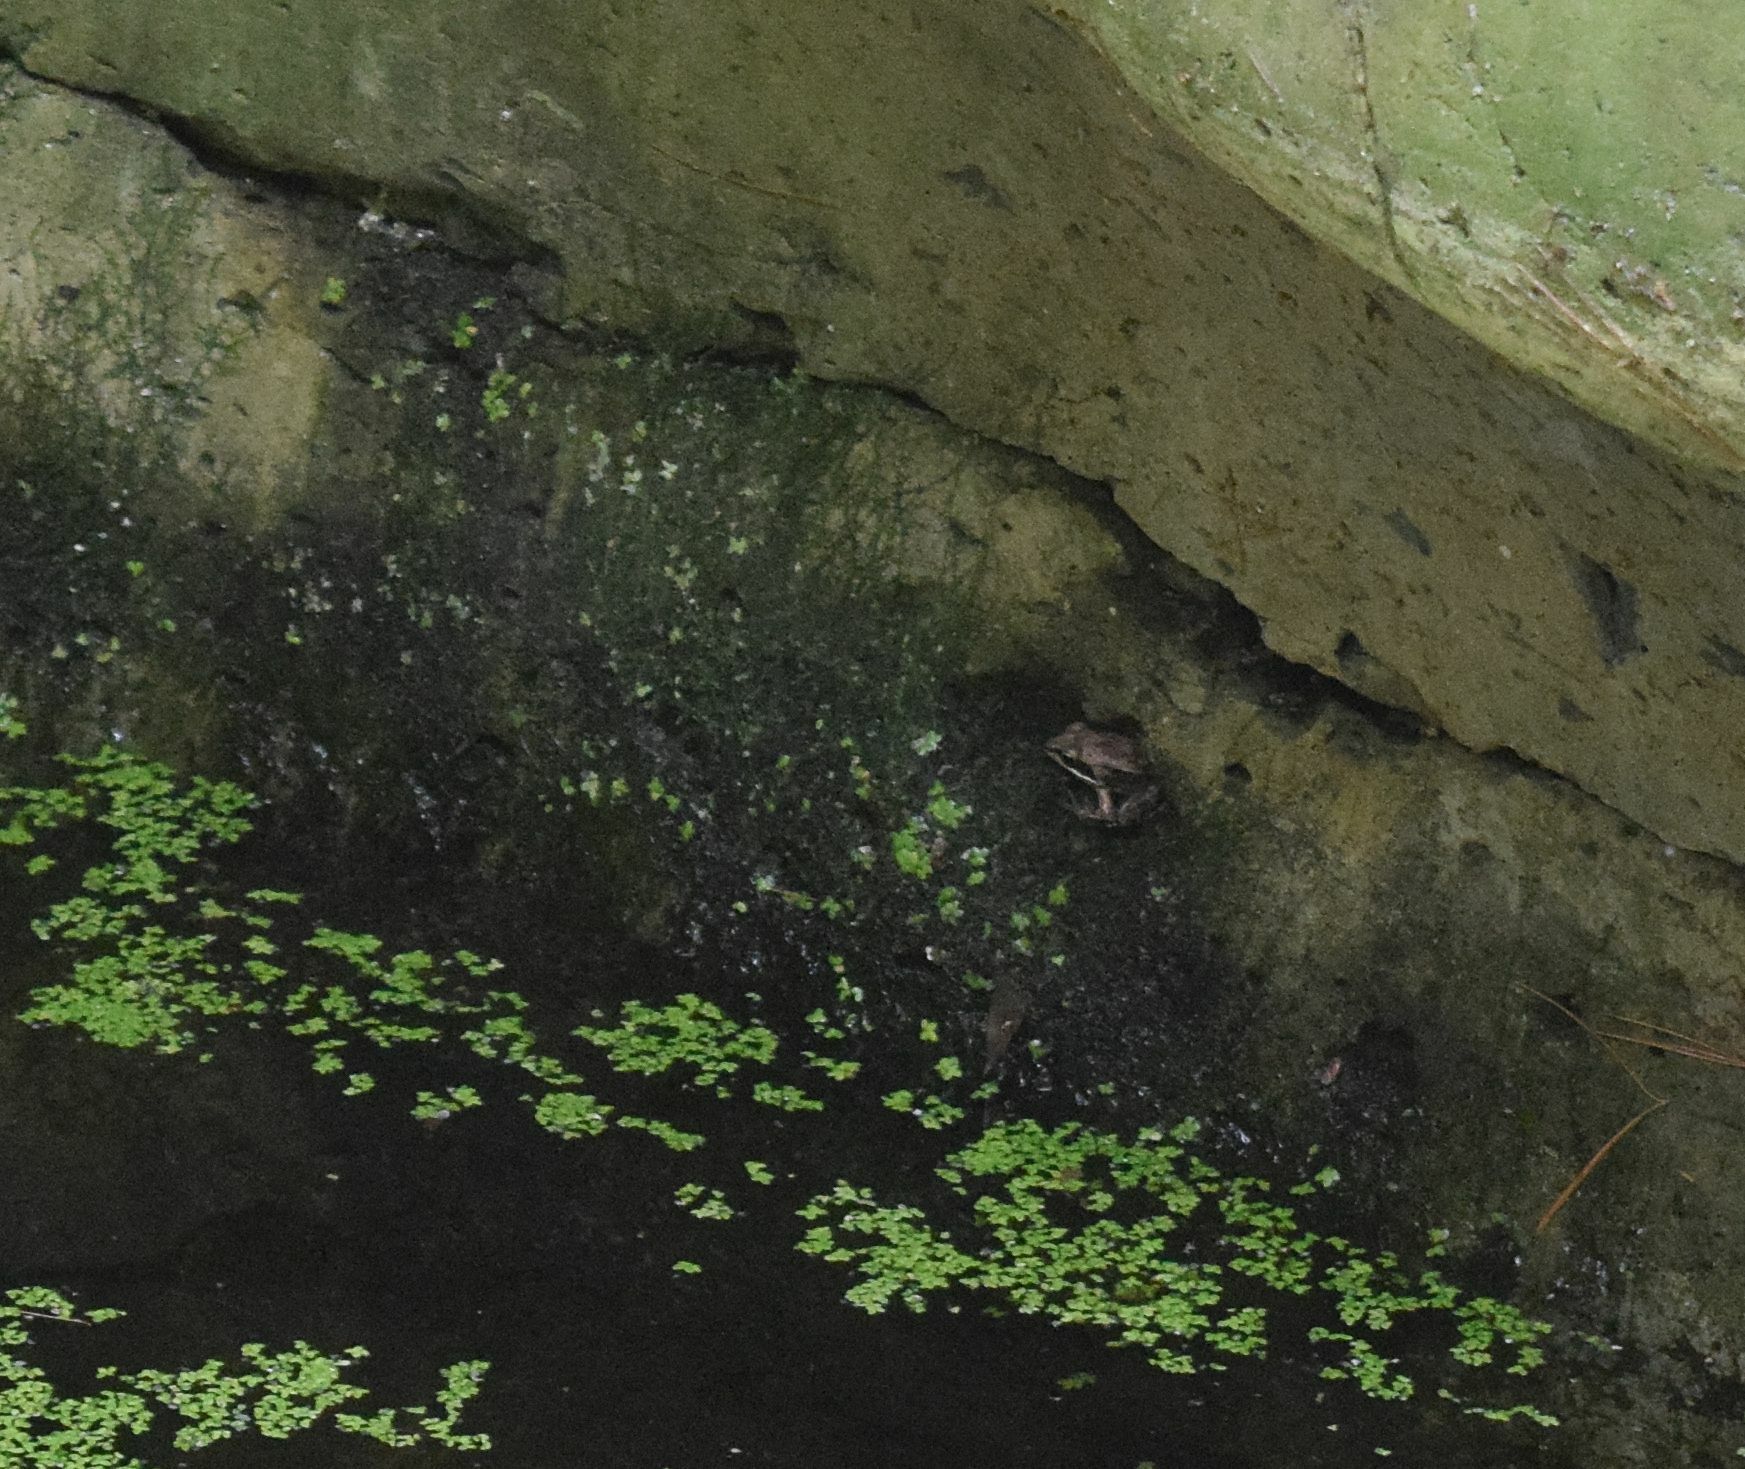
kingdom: Animalia
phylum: Chordata
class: Amphibia
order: Anura
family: Ranidae
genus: Lithobates
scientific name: Lithobates sylvaticus
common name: Wood frog
